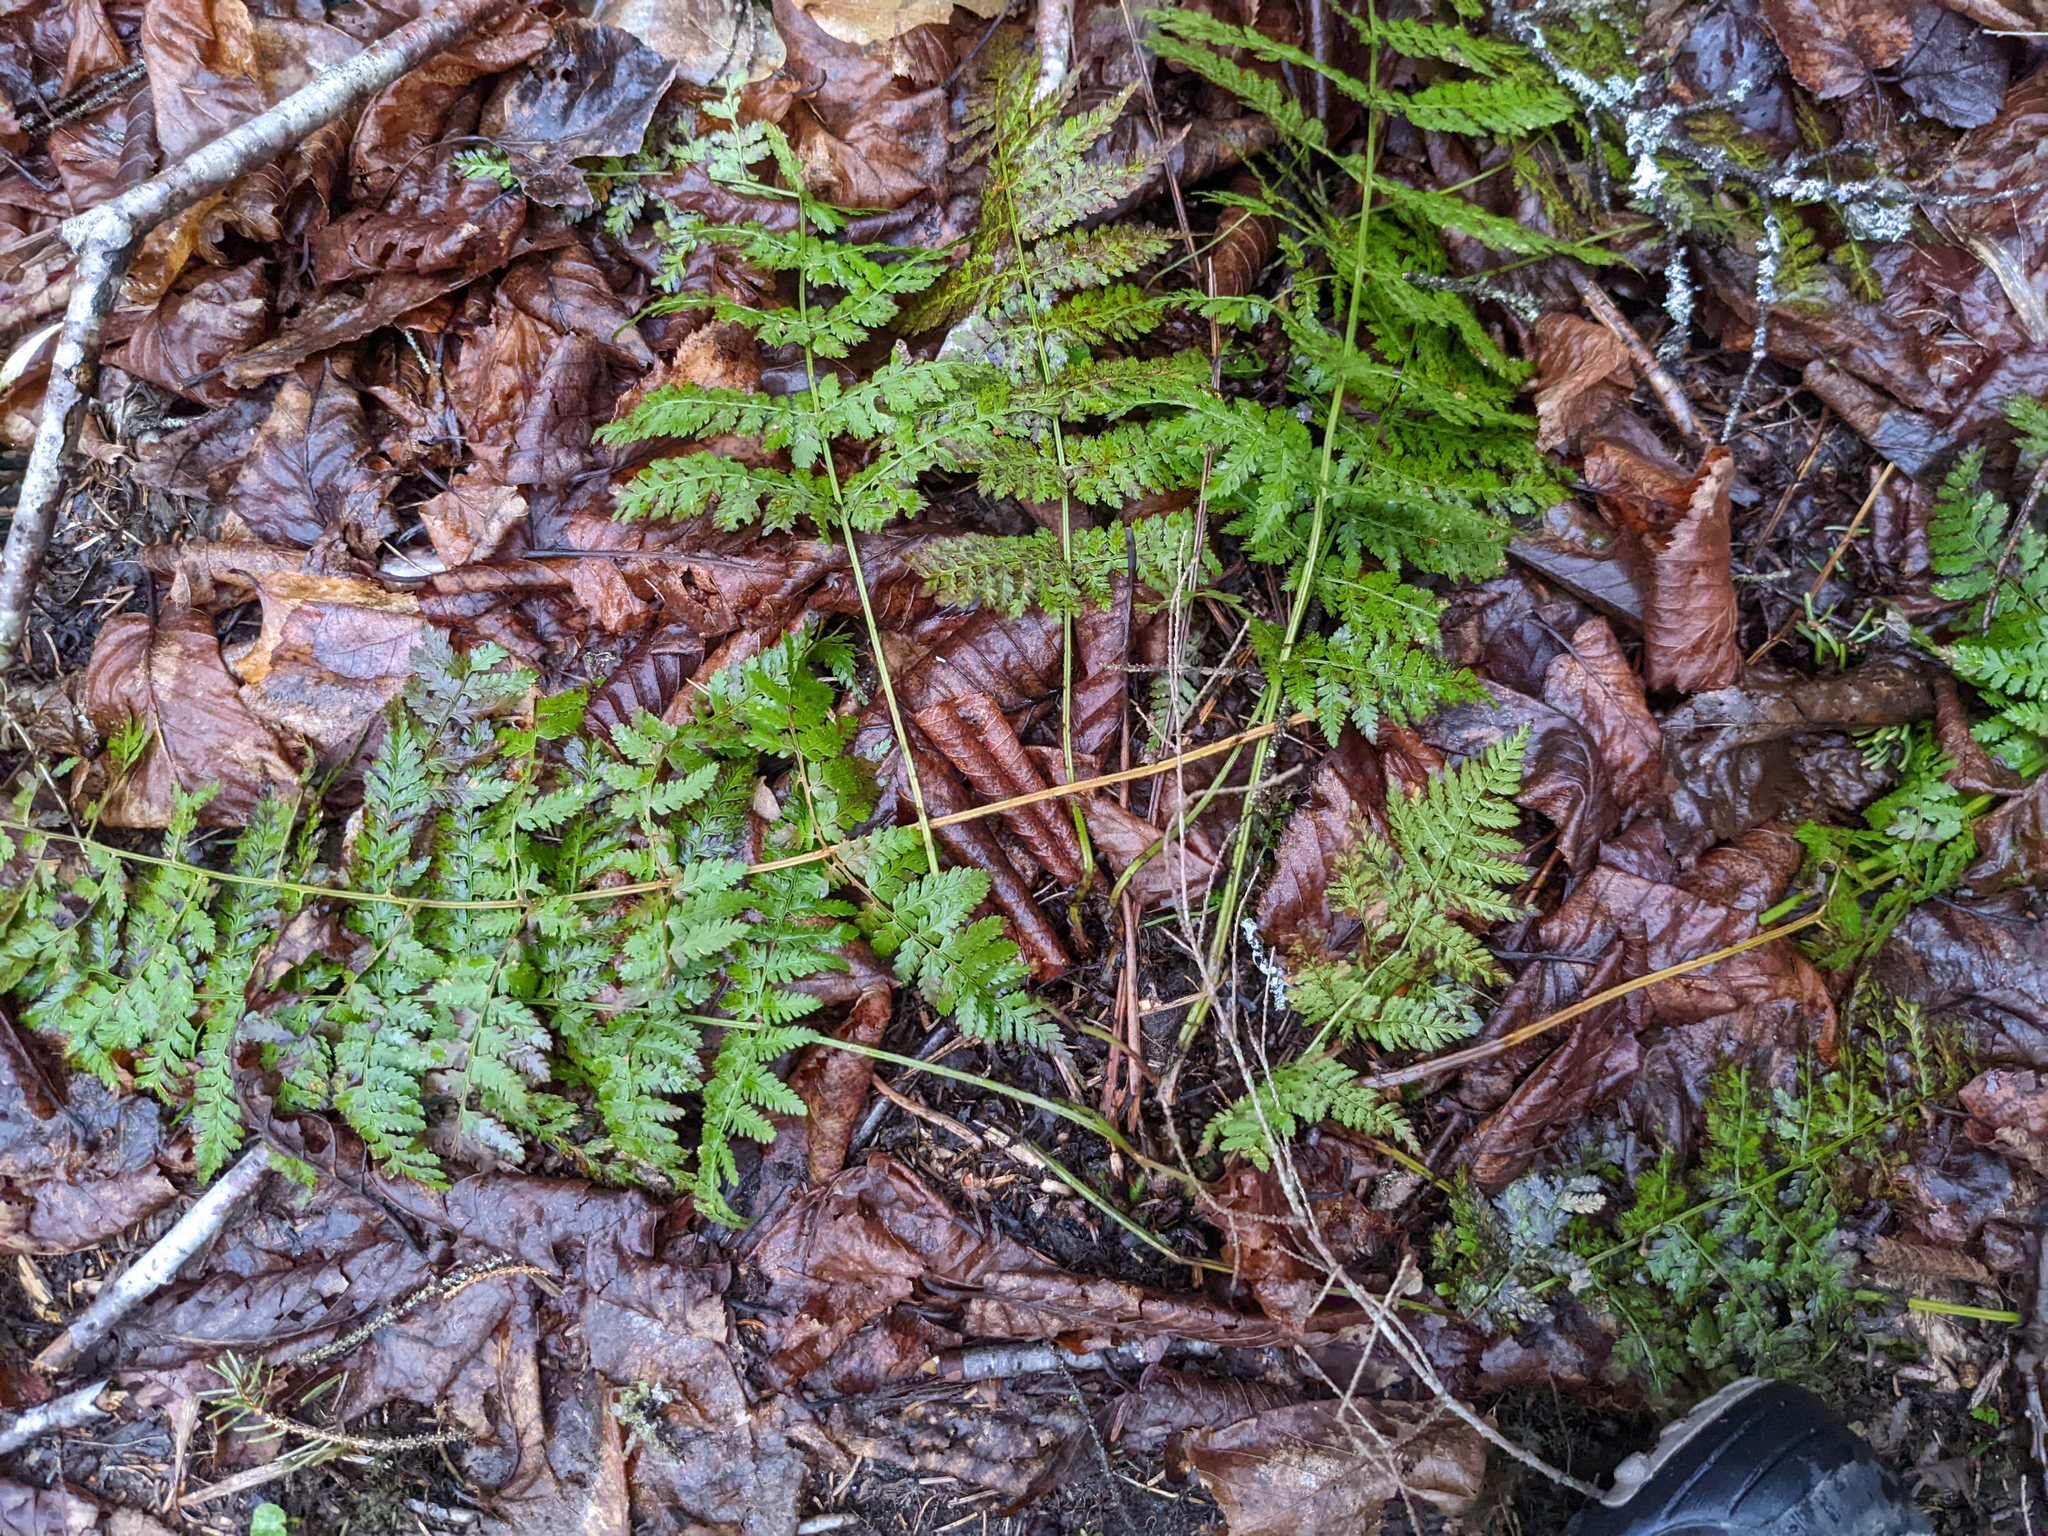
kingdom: Plantae
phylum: Tracheophyta
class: Polypodiopsida
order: Polypodiales
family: Dryopteridaceae
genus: Dryopteris
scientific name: Dryopteris intermedia
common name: Evergreen wood fern
